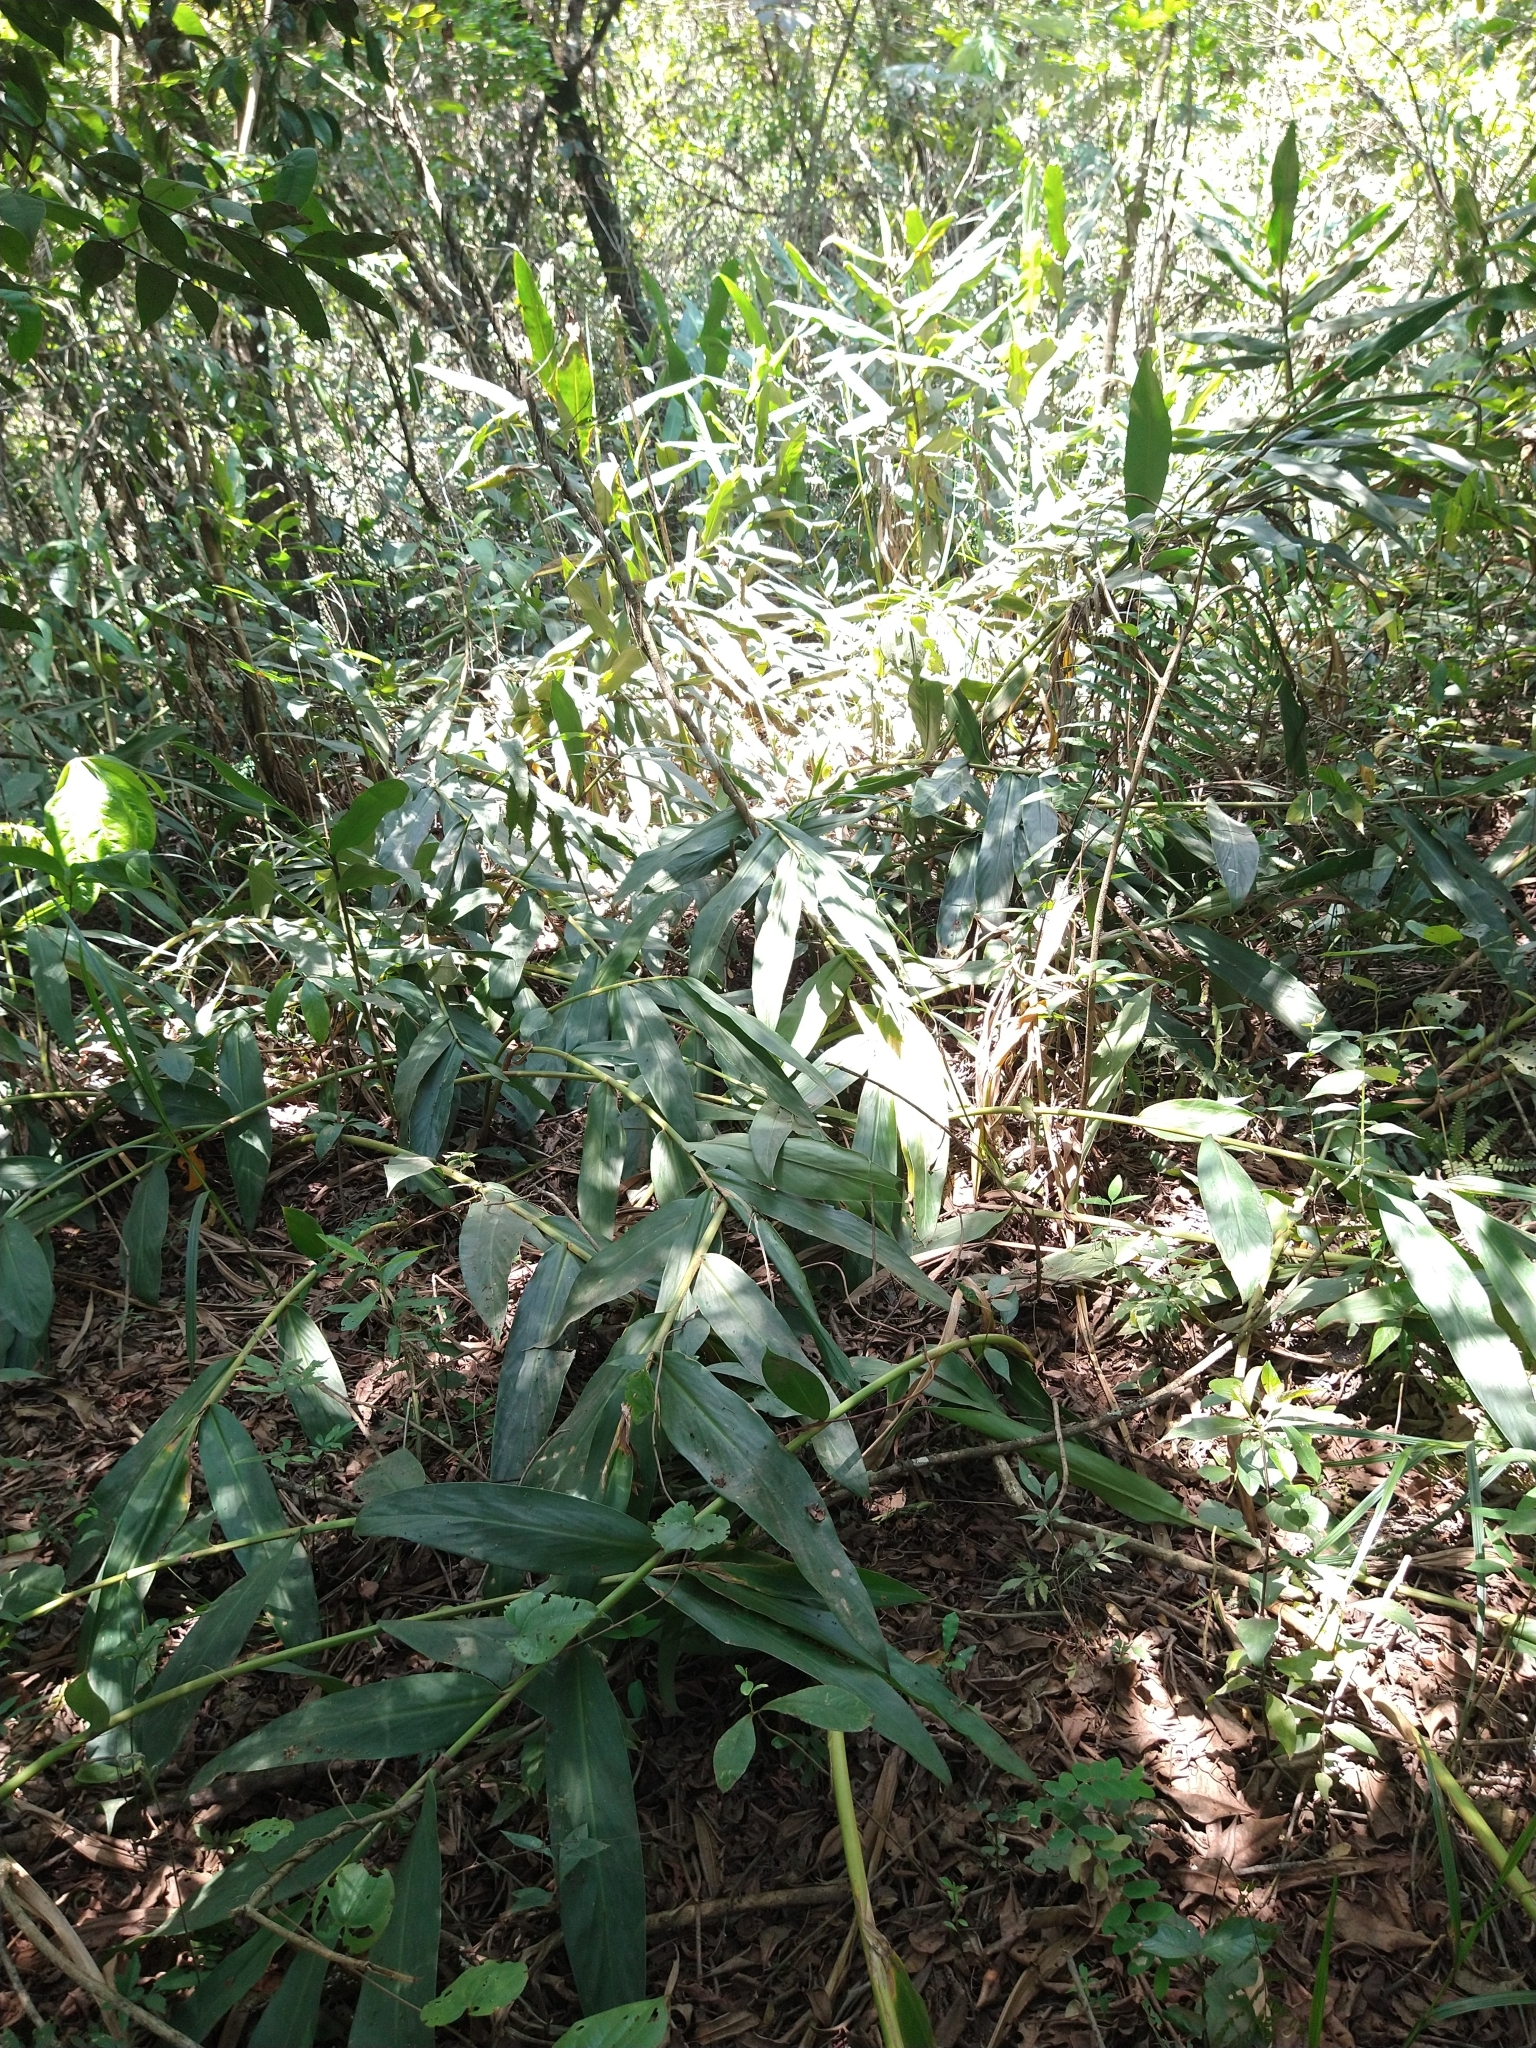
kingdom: Plantae
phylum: Tracheophyta
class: Liliopsida
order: Zingiberales
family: Zingiberaceae
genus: Hedychium
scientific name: Hedychium coronarium
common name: White garland-lily
